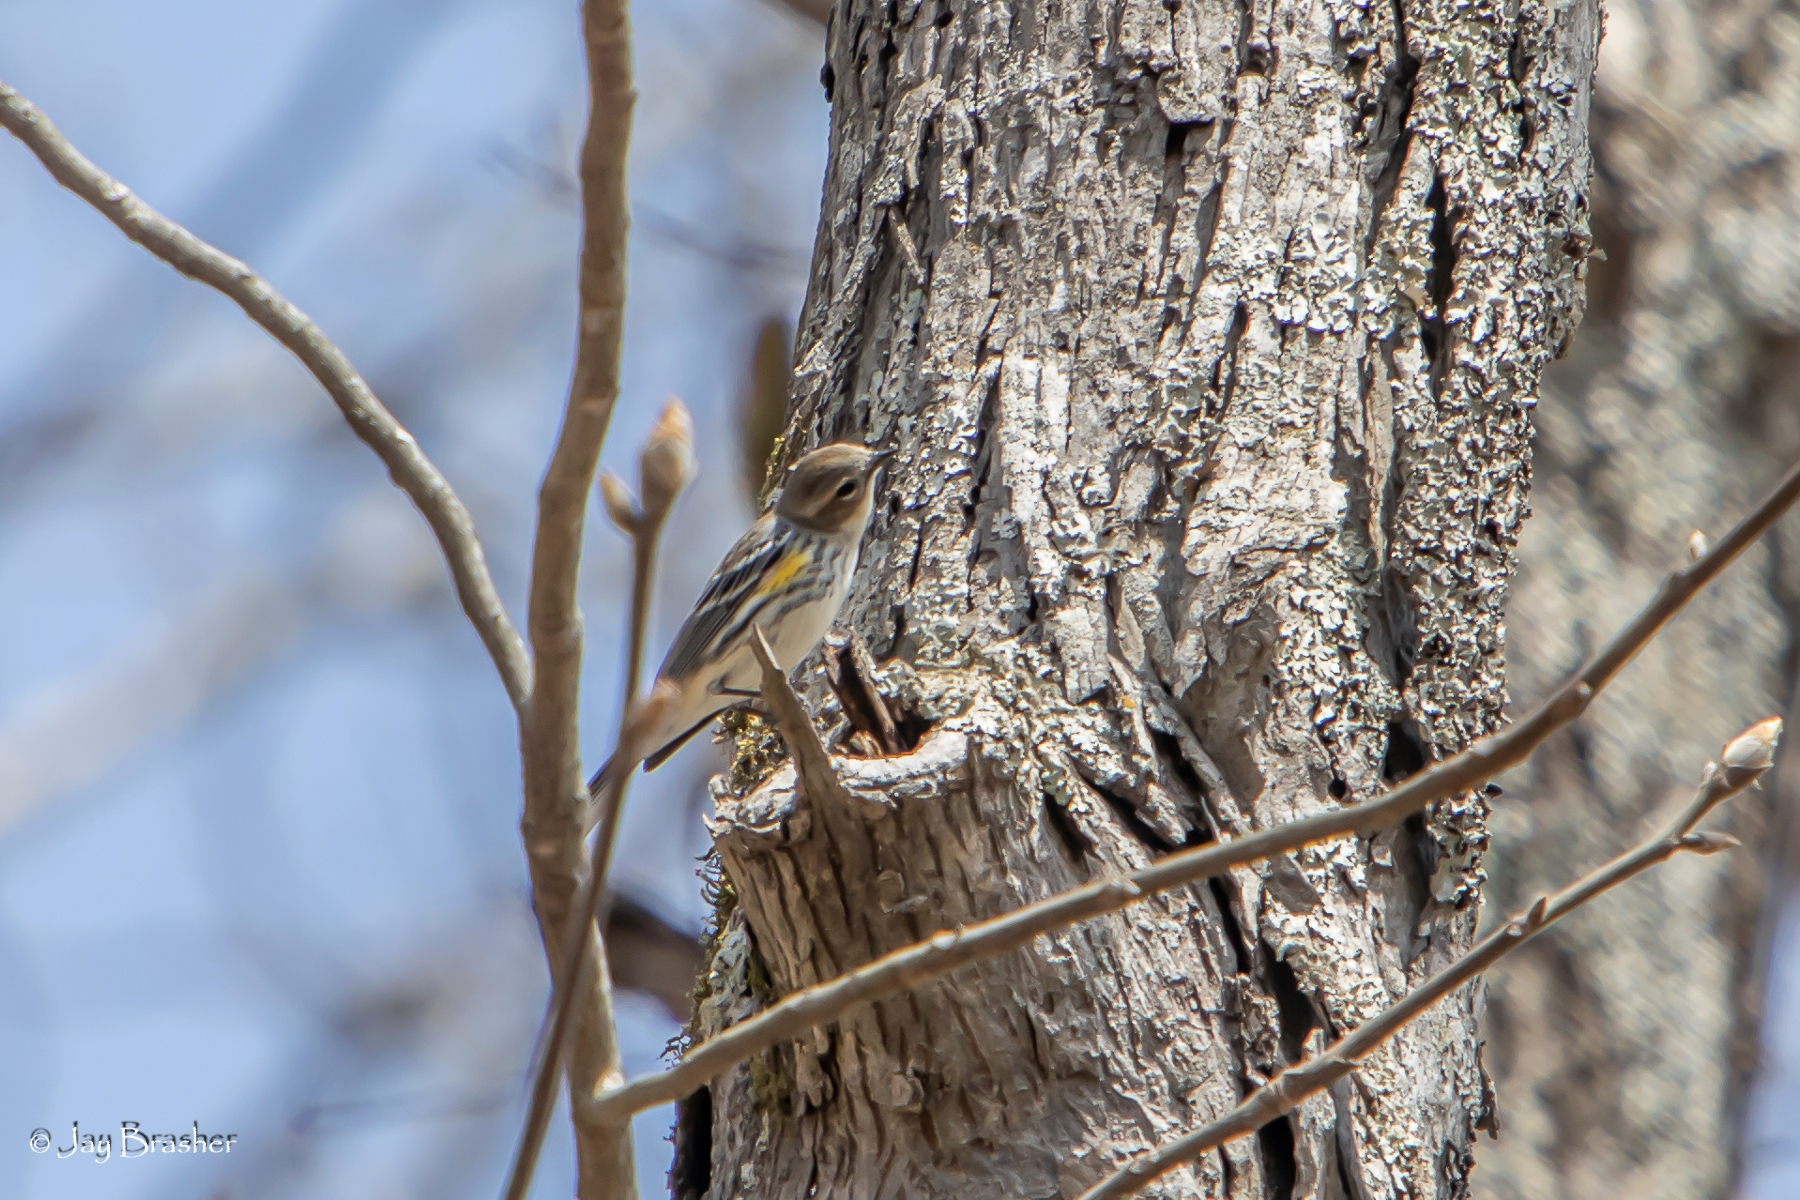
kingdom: Animalia
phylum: Chordata
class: Aves
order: Passeriformes
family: Parulidae
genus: Setophaga
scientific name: Setophaga coronata
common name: Myrtle warbler
